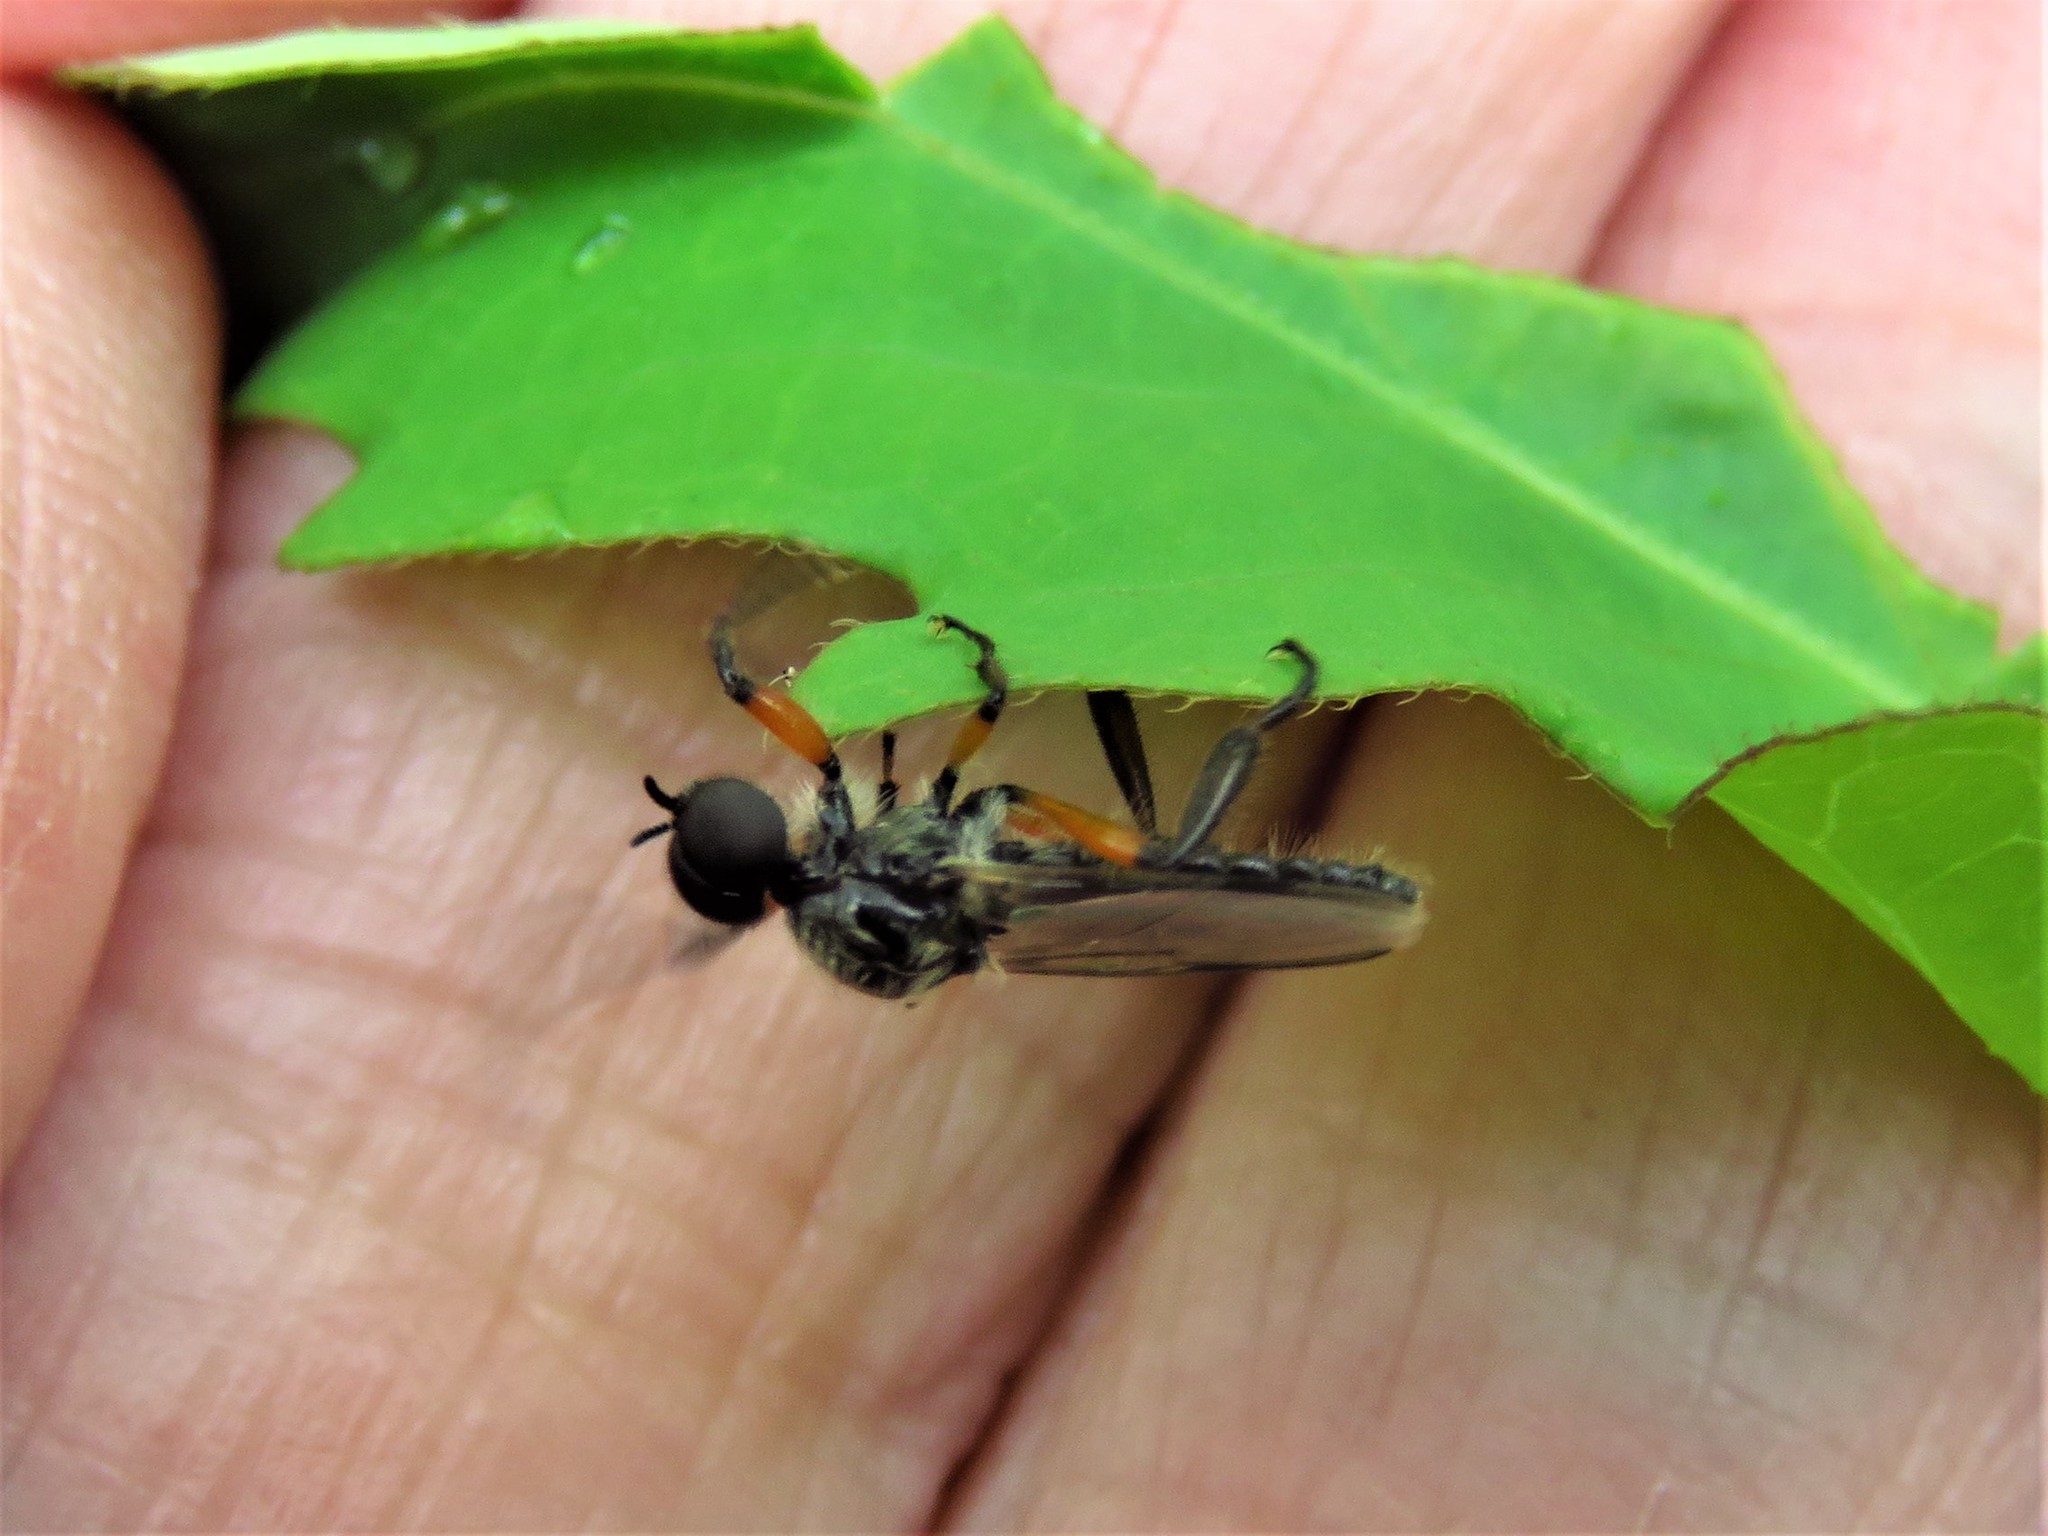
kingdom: Animalia
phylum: Arthropoda
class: Insecta
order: Diptera
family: Bibionidae
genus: Bibio
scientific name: Bibio alienus
